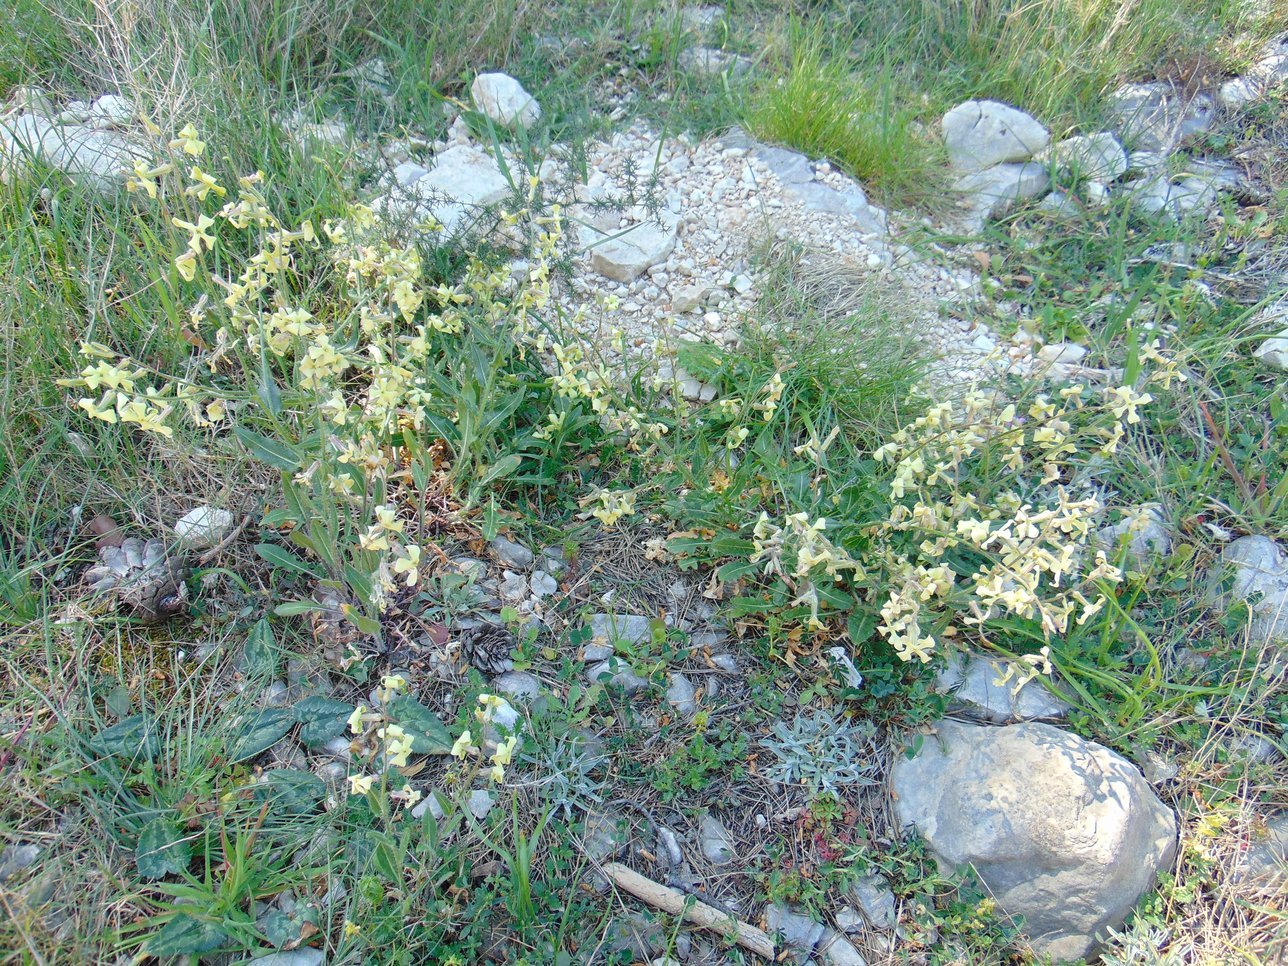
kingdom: Plantae
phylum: Tracheophyta
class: Magnoliopsida
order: Brassicales
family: Brassicaceae
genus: Hesperis
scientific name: Hesperis laciniata
